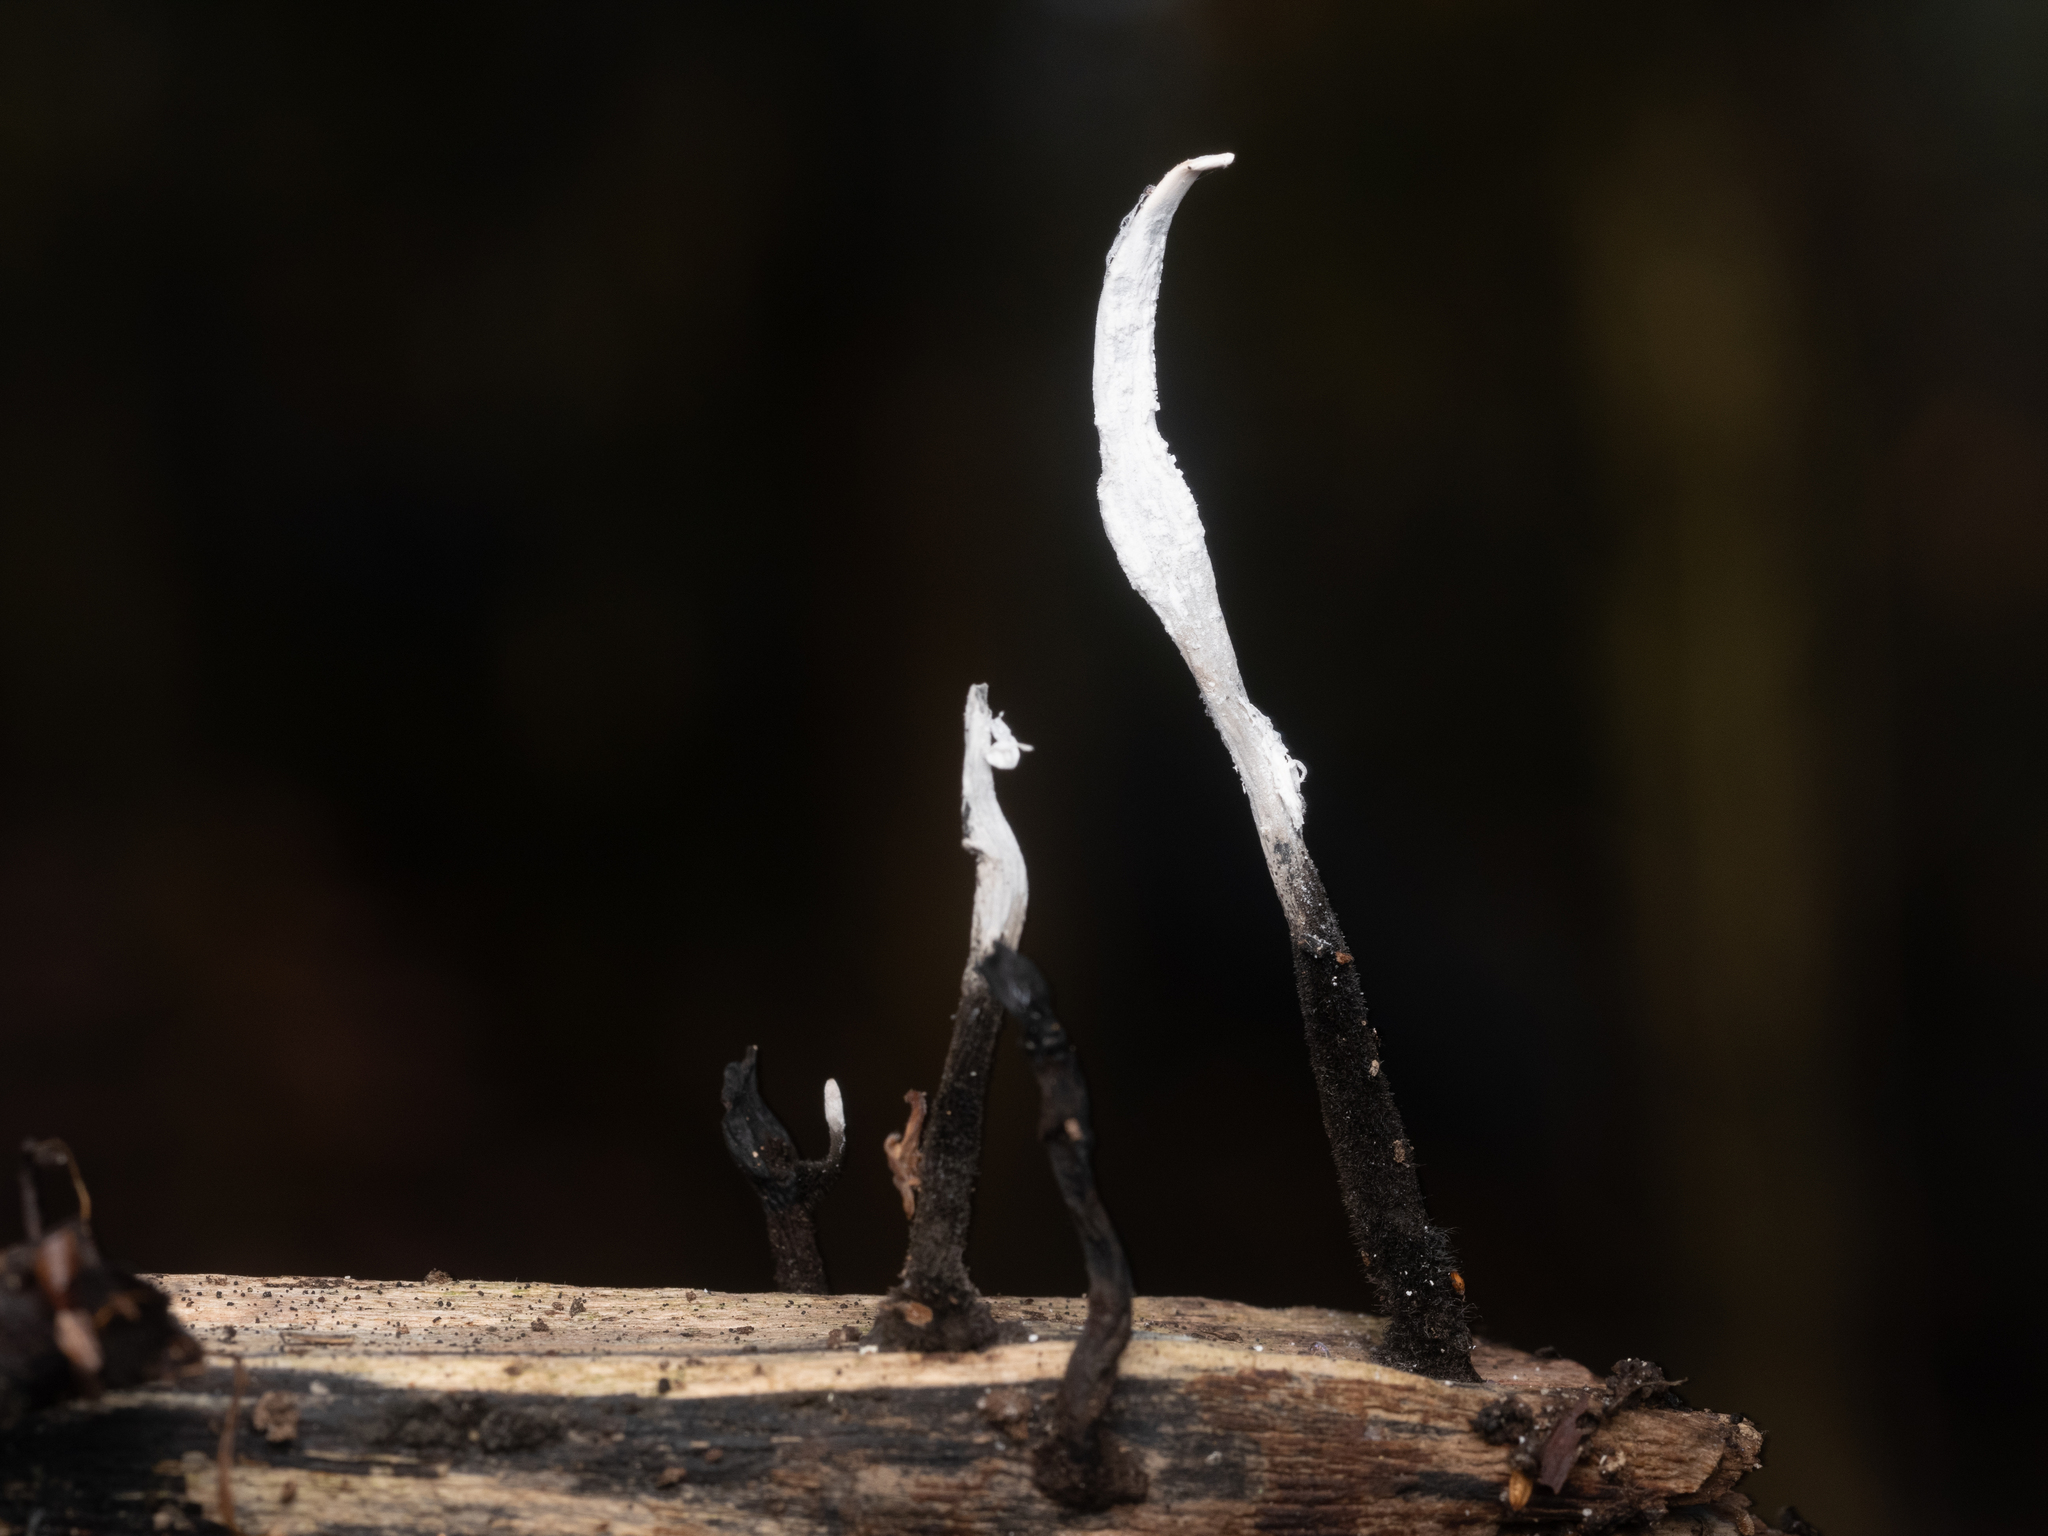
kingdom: Fungi
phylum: Ascomycota
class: Sordariomycetes
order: Xylariales
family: Xylariaceae
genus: Xylaria
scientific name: Xylaria hypoxylon
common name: Candle-snuff fungus
